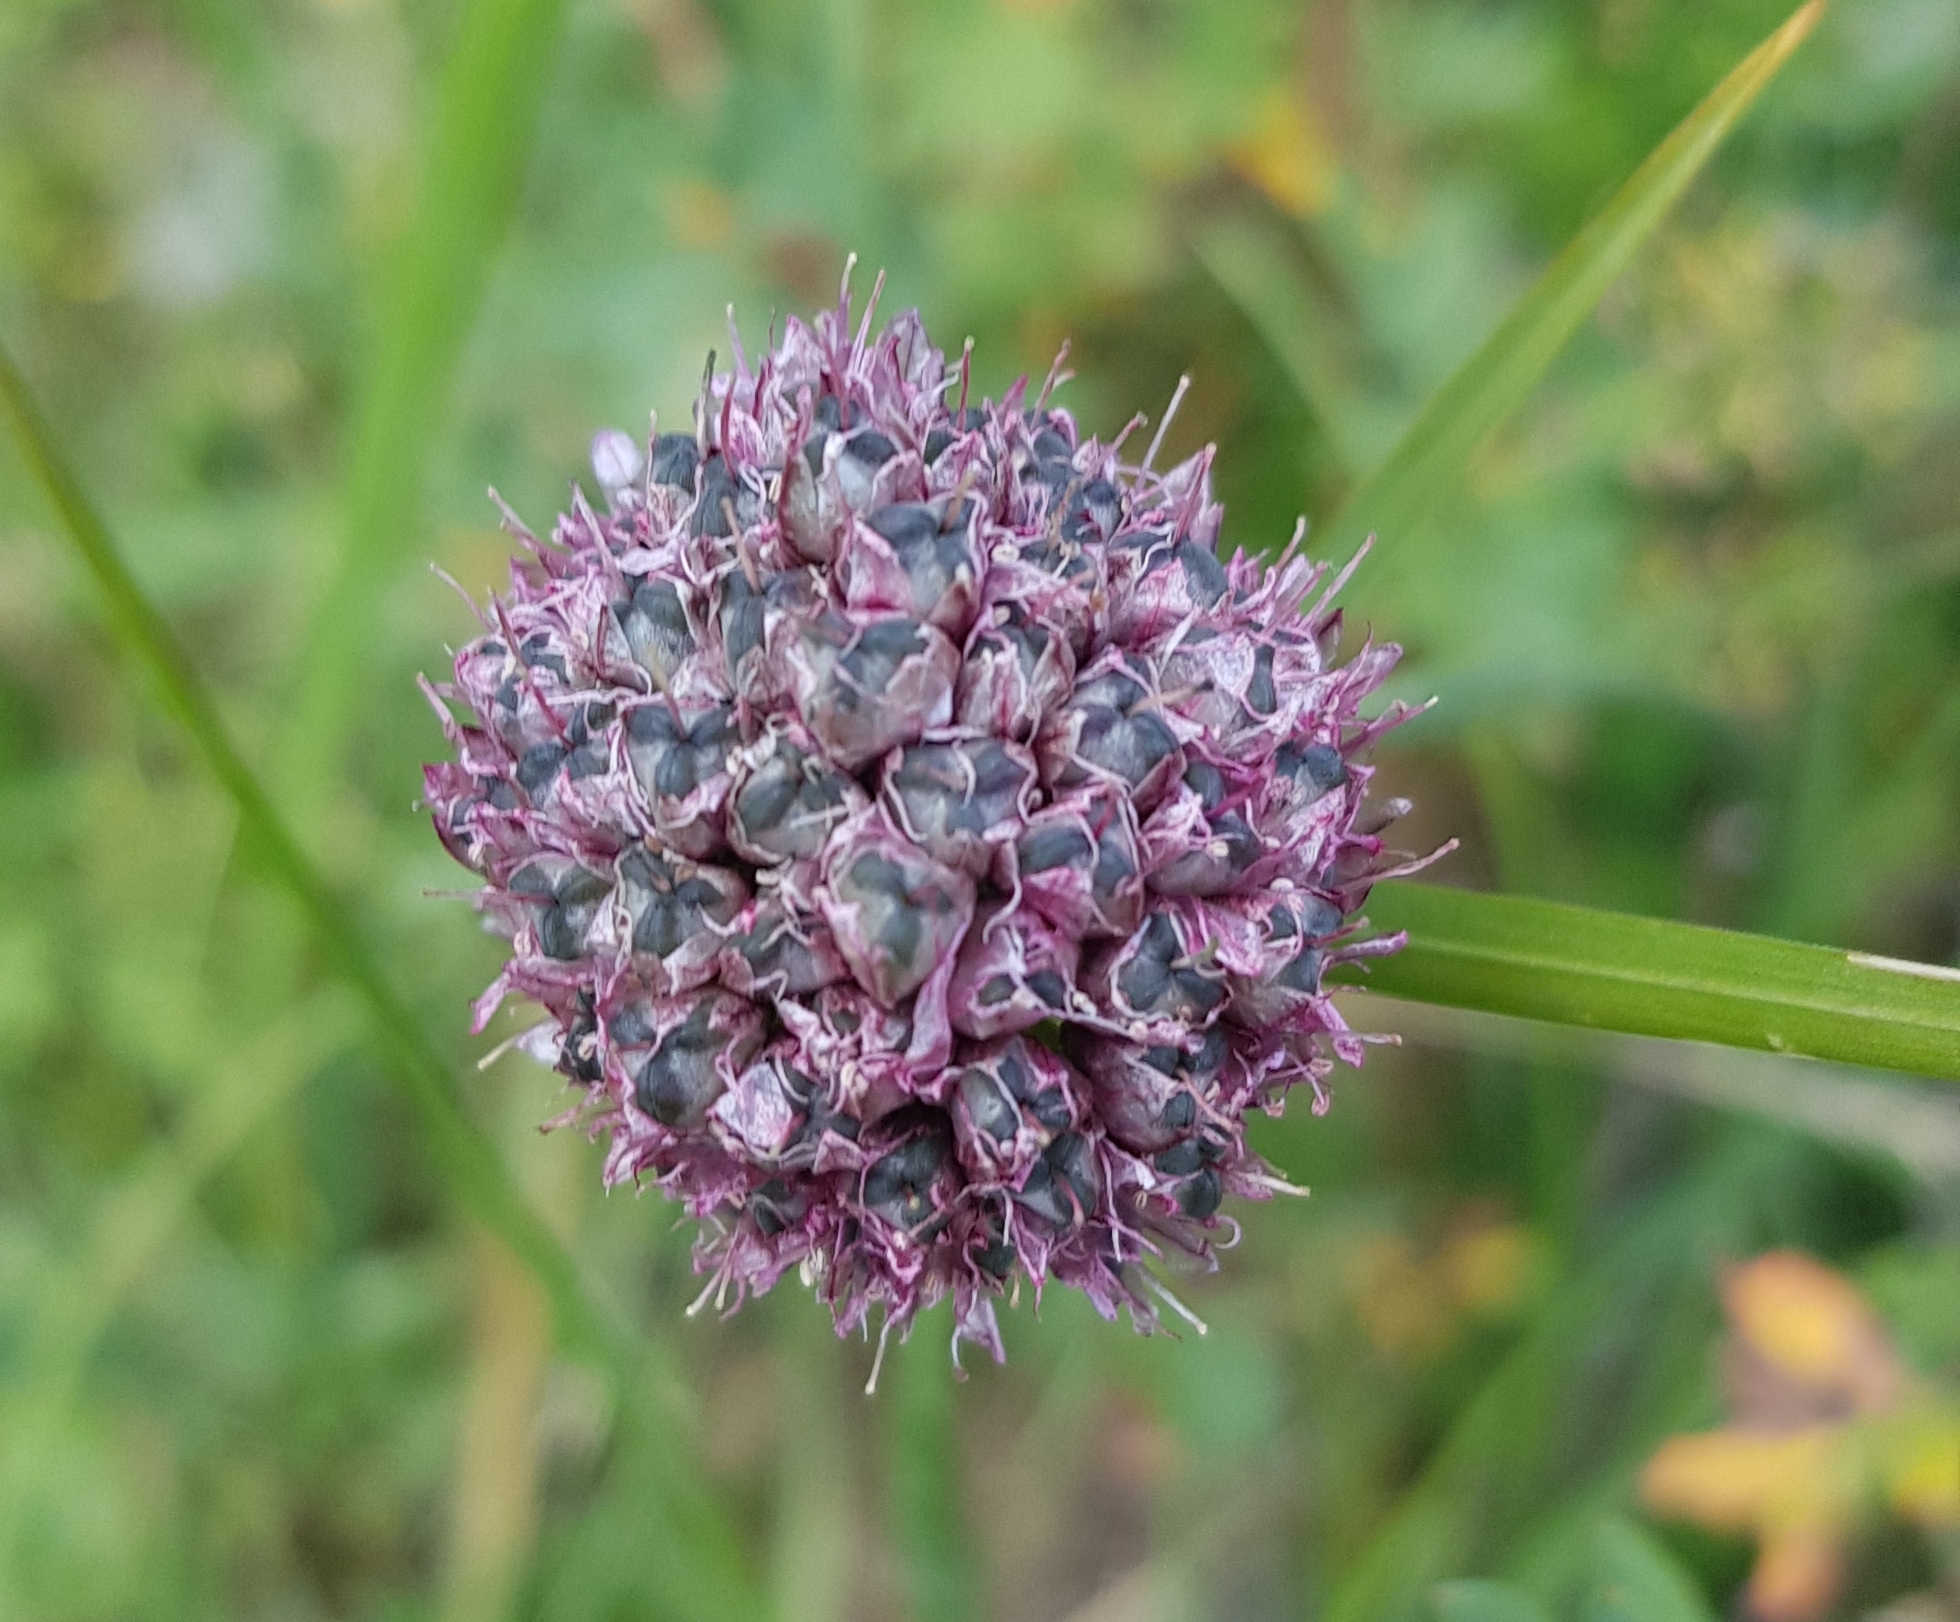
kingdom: Plantae
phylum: Tracheophyta
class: Liliopsida
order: Asparagales
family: Amaryllidaceae
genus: Allium
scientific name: Allium strictum
